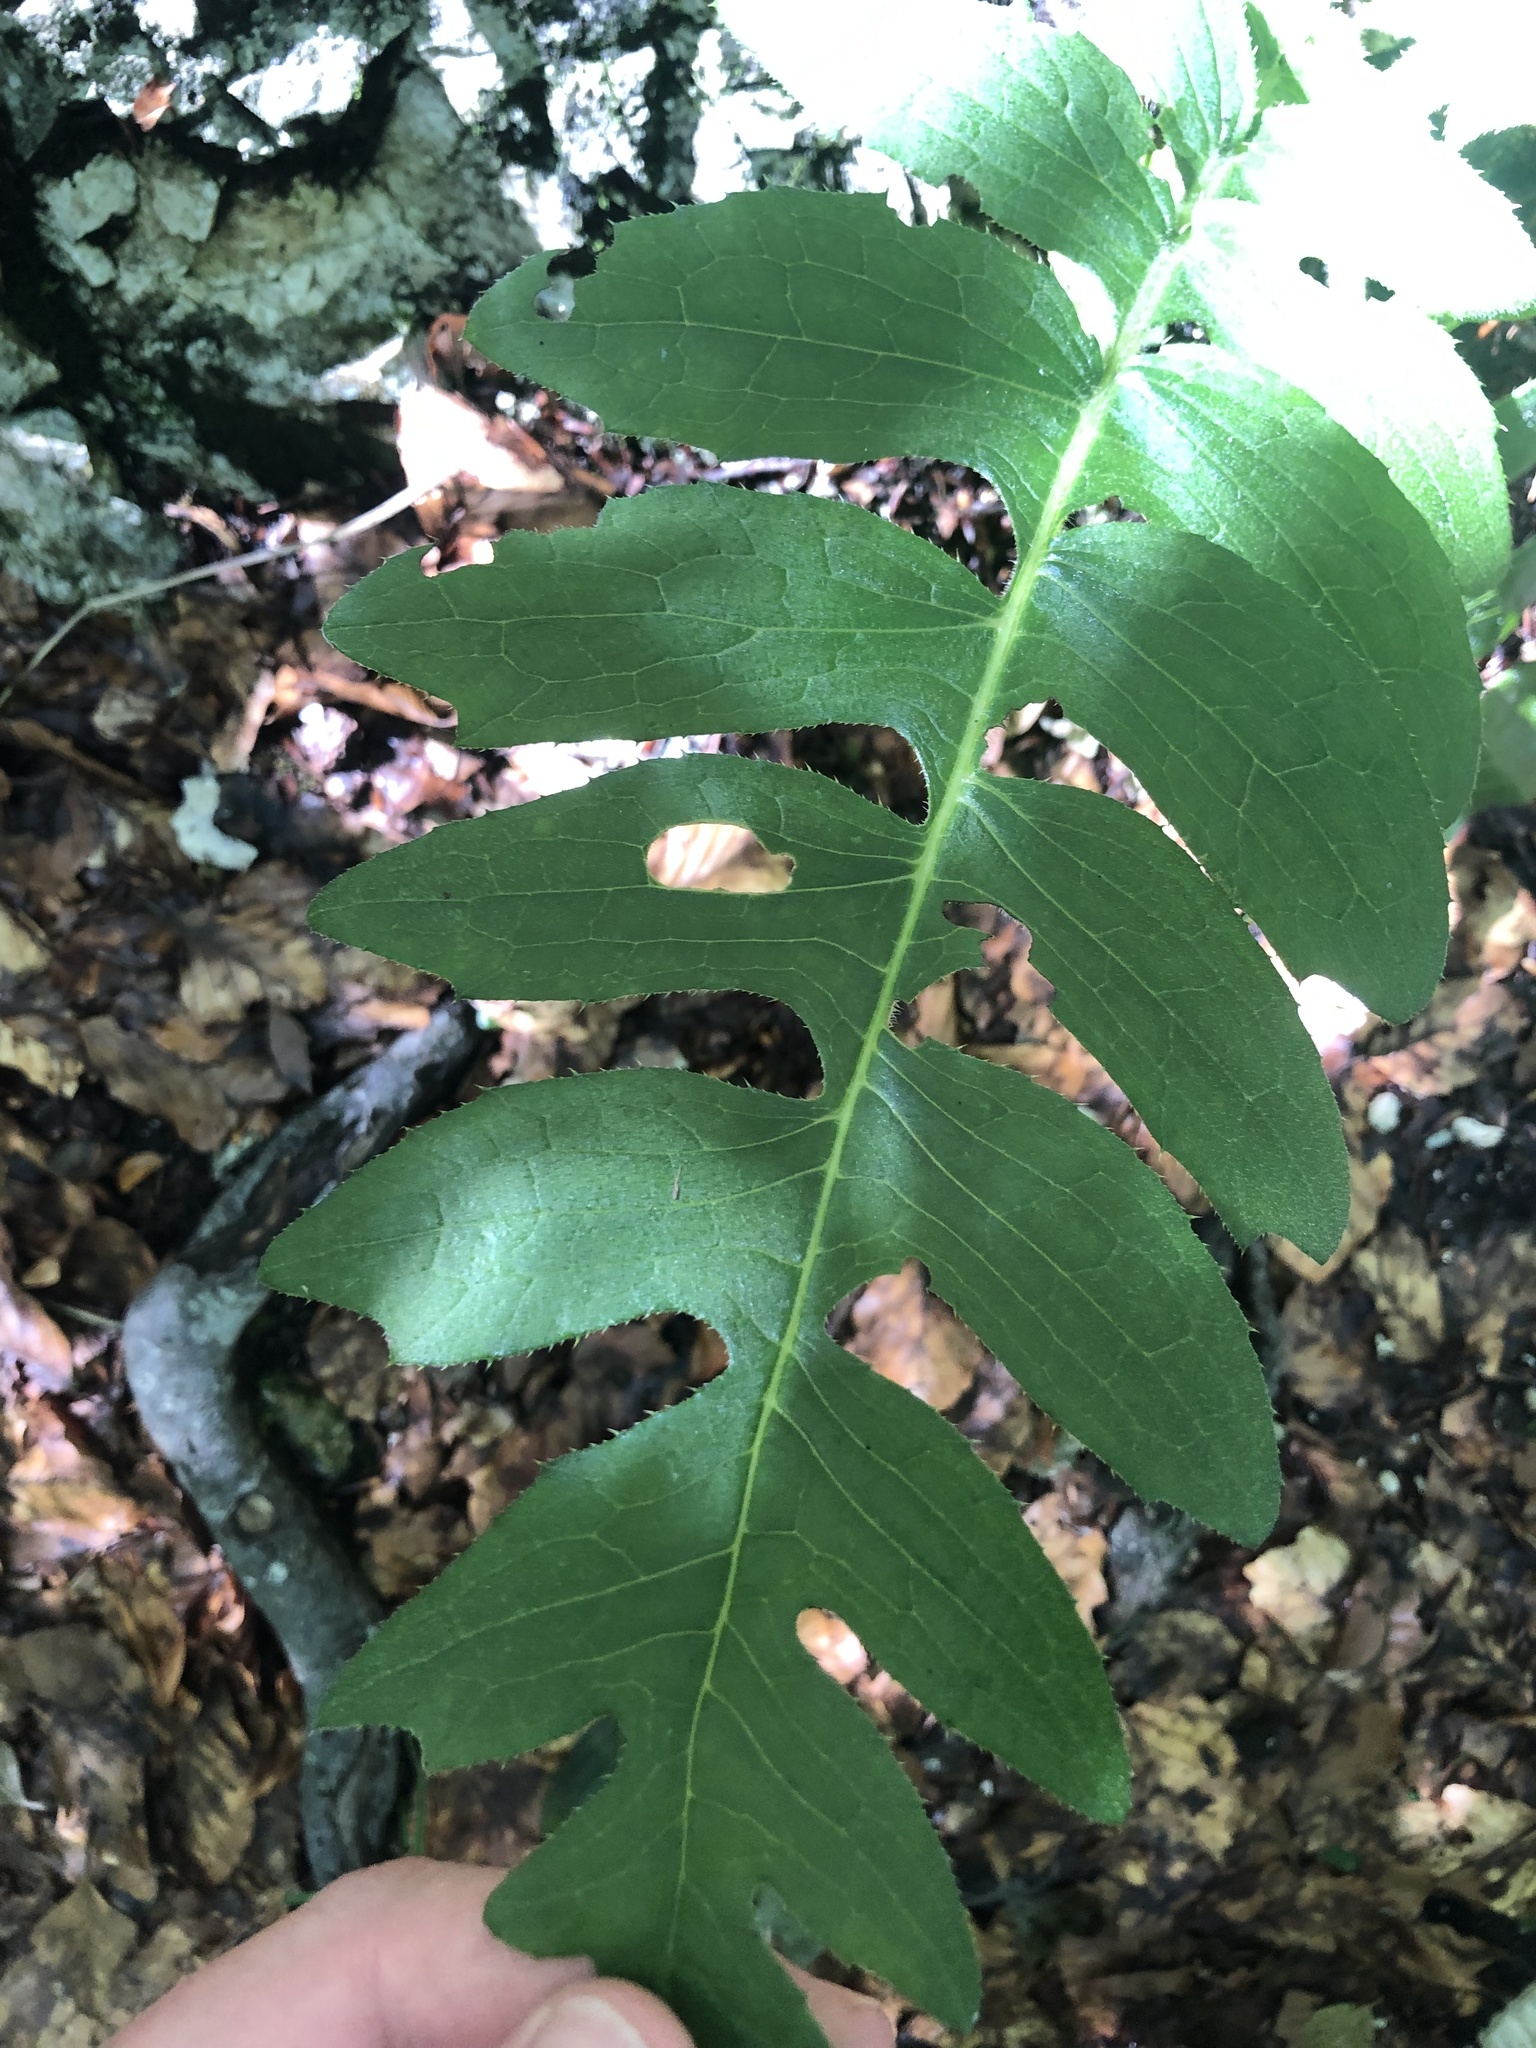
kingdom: Plantae
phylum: Tracheophyta
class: Magnoliopsida
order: Asterales
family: Asteraceae
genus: Cirsium
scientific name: Cirsium erisithales
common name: Yellow thistle
